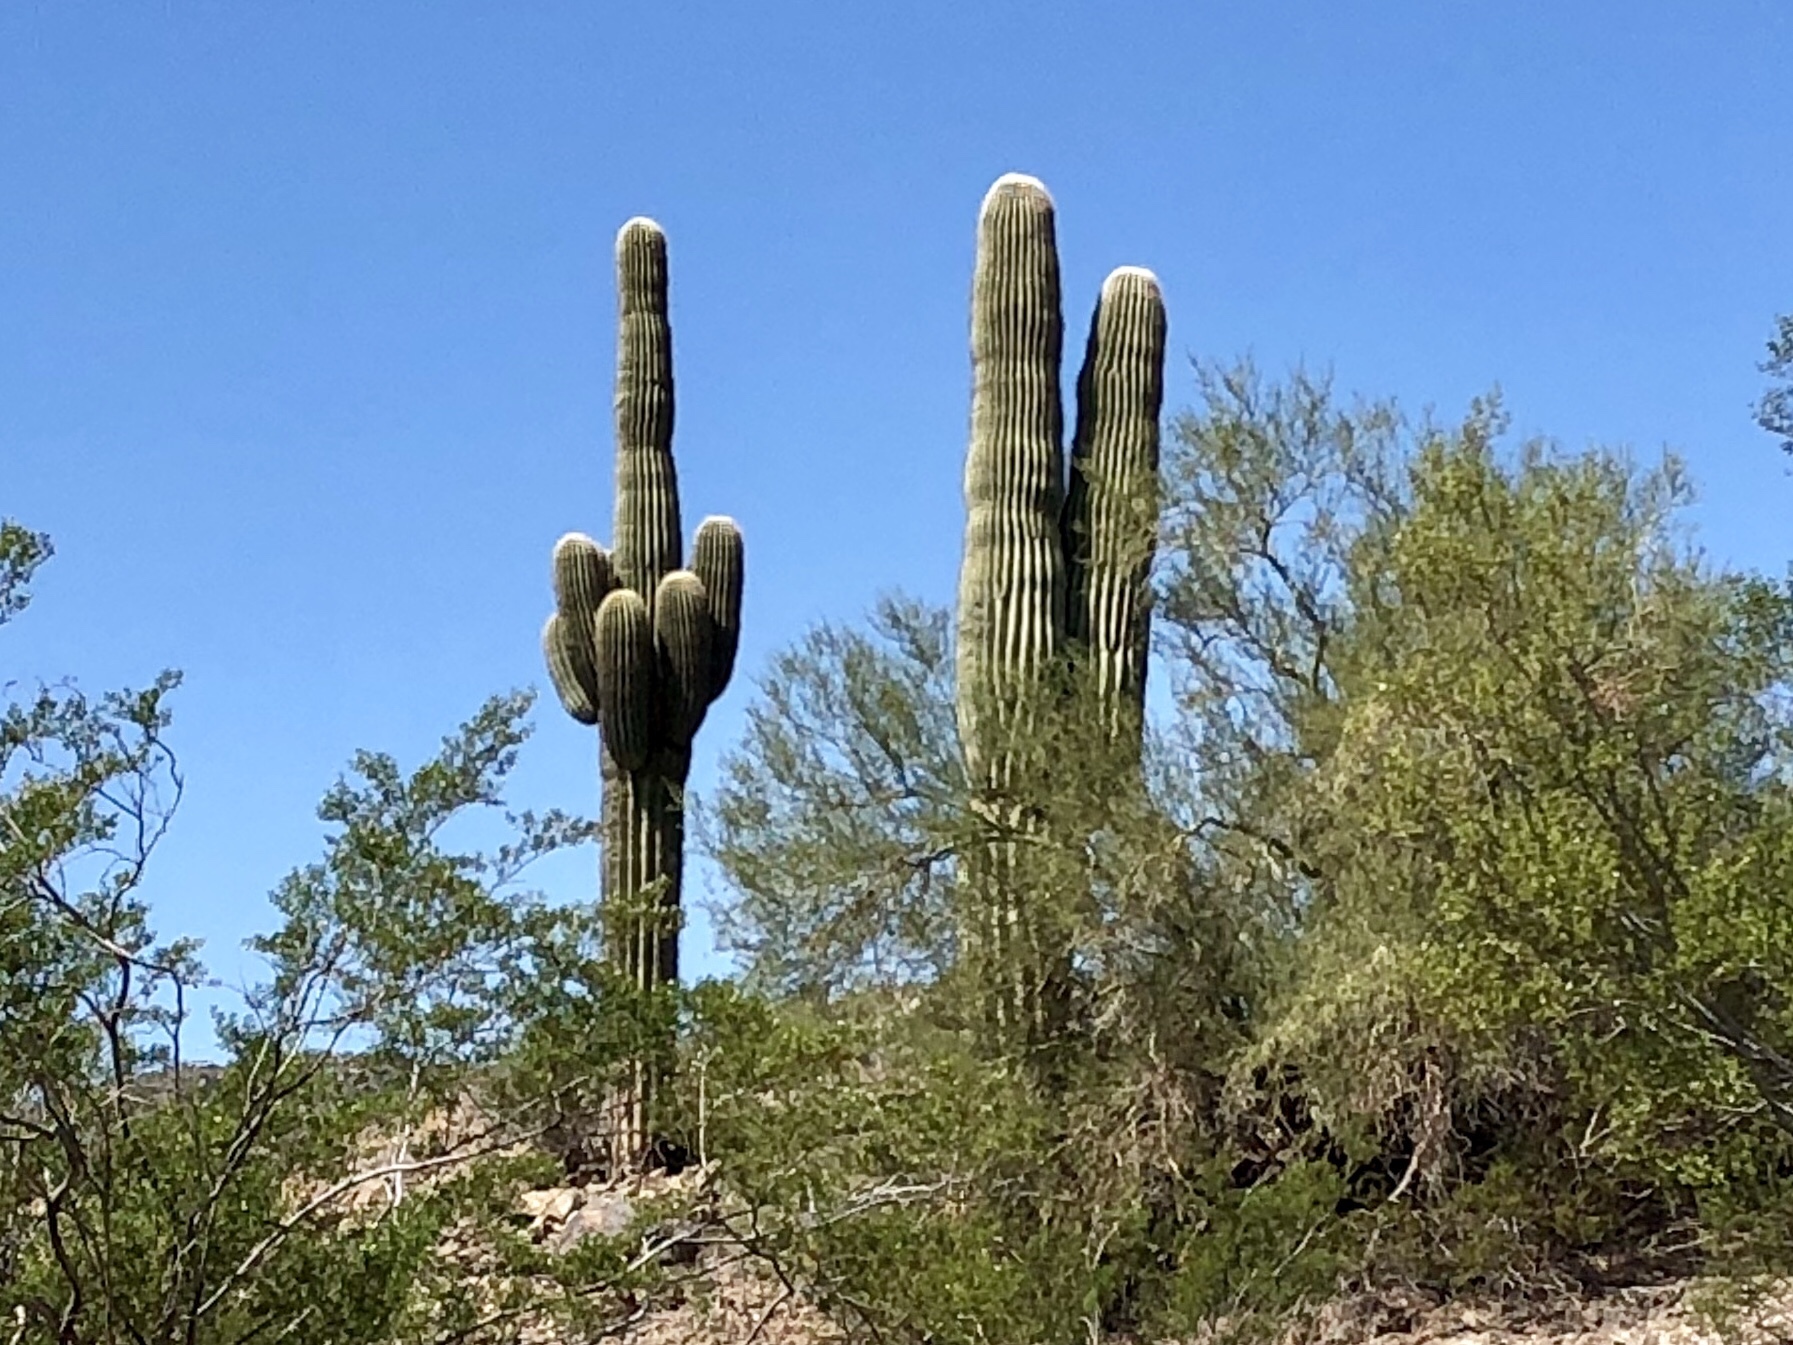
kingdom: Plantae
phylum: Tracheophyta
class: Magnoliopsida
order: Caryophyllales
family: Cactaceae
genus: Carnegiea
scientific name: Carnegiea gigantea
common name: Saguaro
